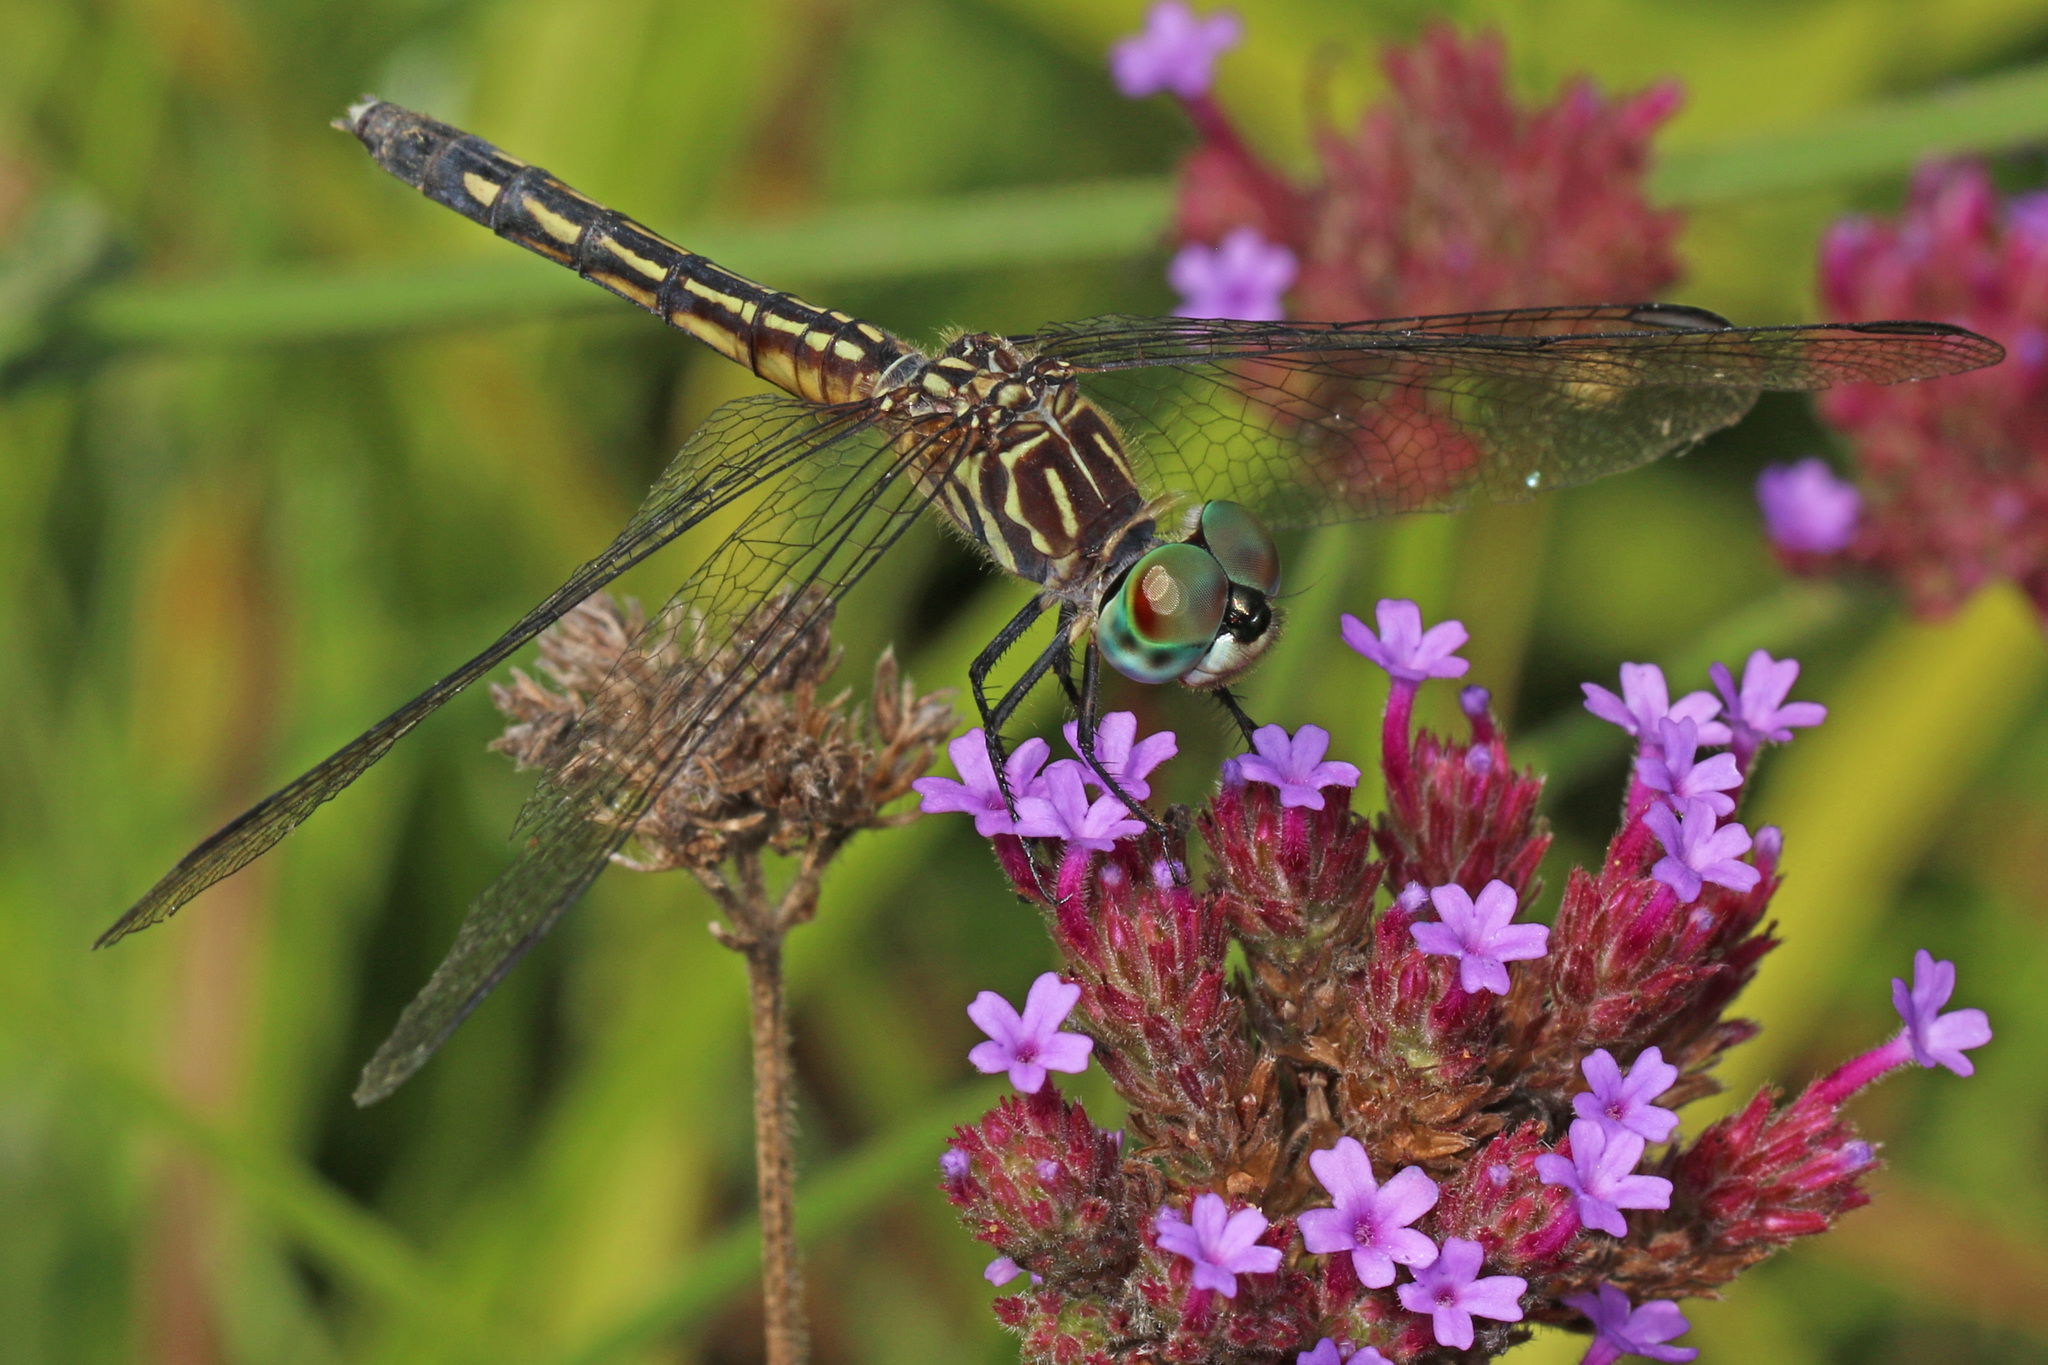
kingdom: Animalia
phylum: Arthropoda
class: Insecta
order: Odonata
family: Libellulidae
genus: Pachydiplax
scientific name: Pachydiplax longipennis
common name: Blue dasher
